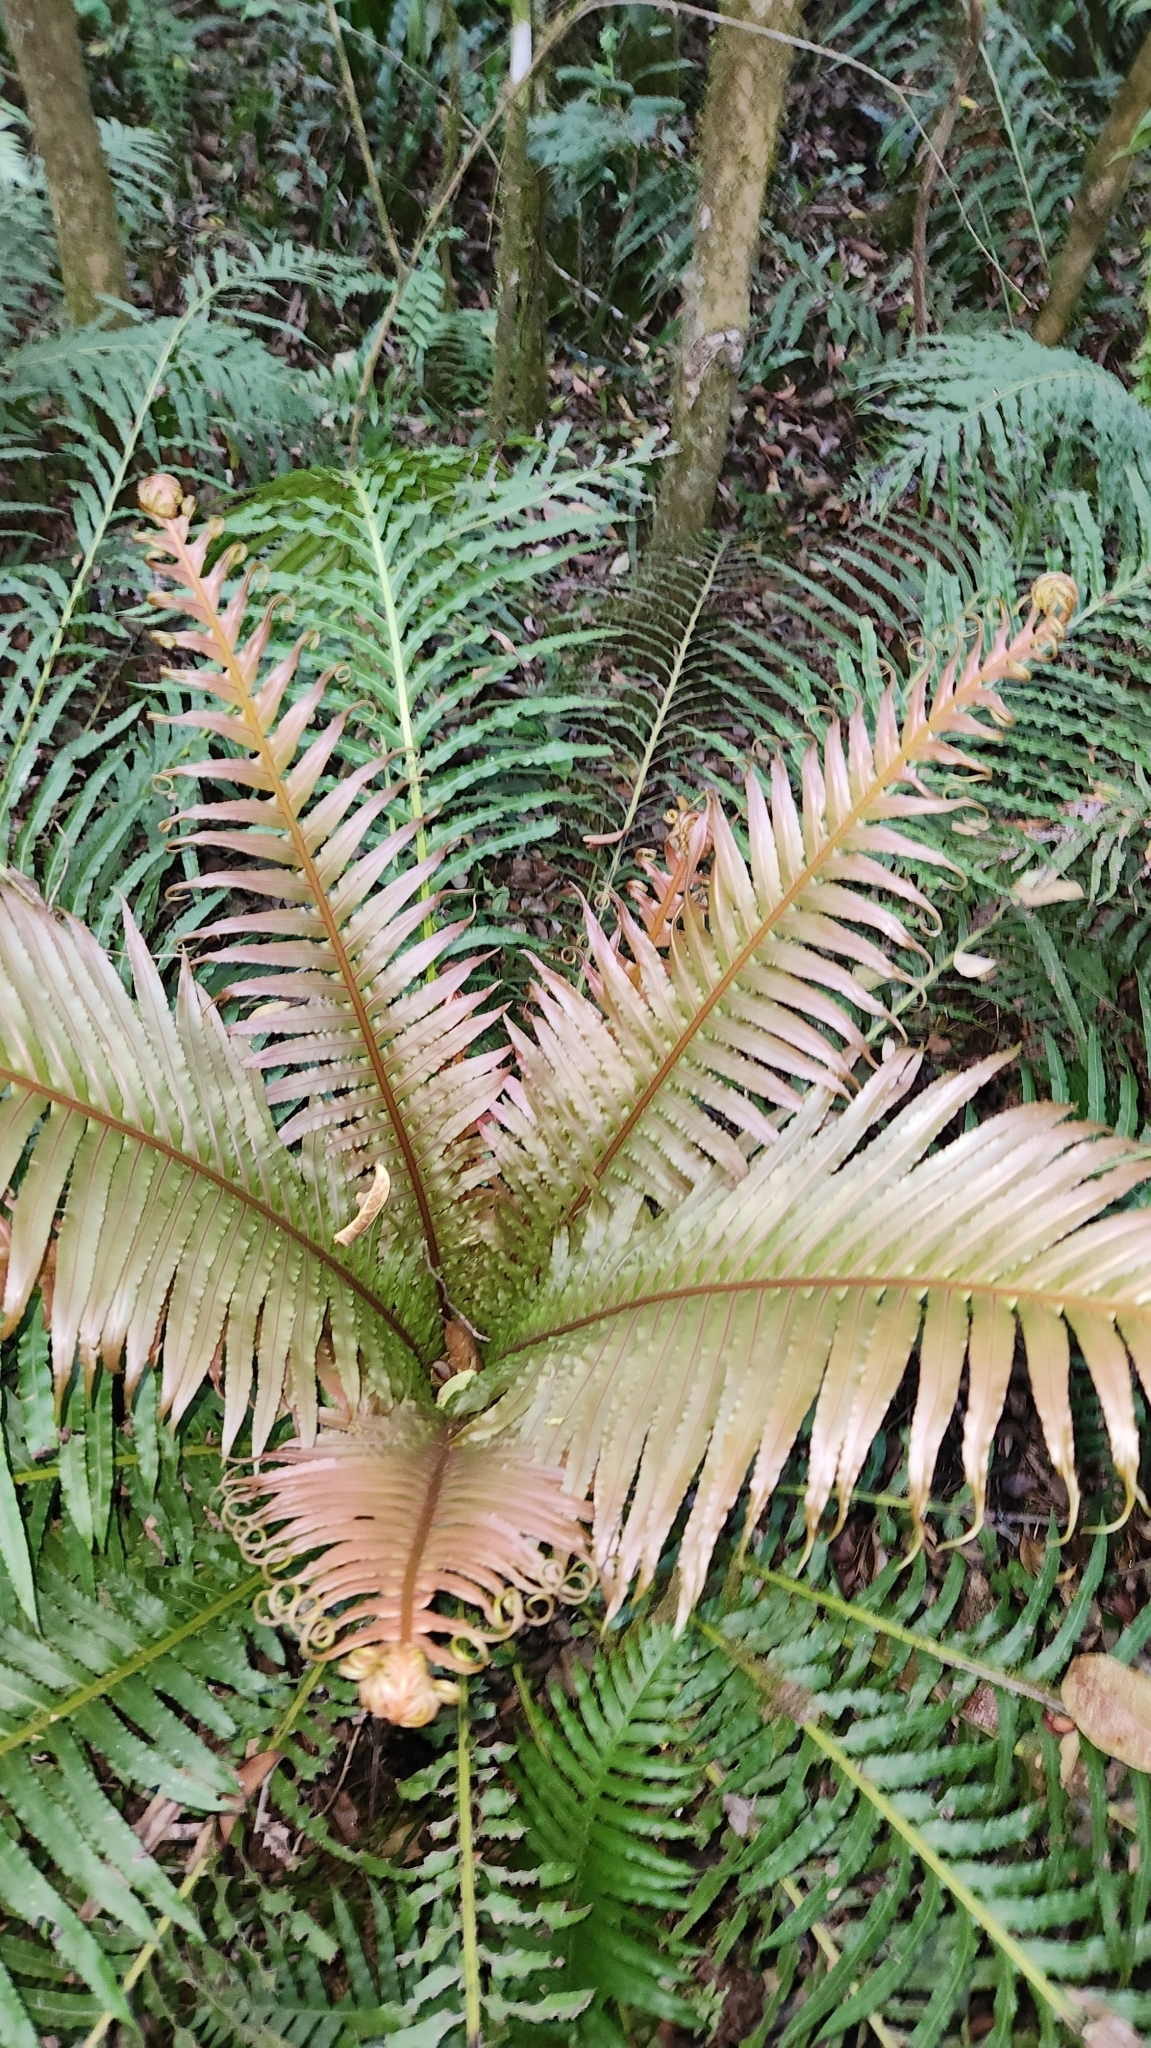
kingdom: Plantae
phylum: Tracheophyta
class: Polypodiopsida
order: Polypodiales
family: Blechnaceae
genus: Neoblechnum
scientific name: Neoblechnum brasiliense
